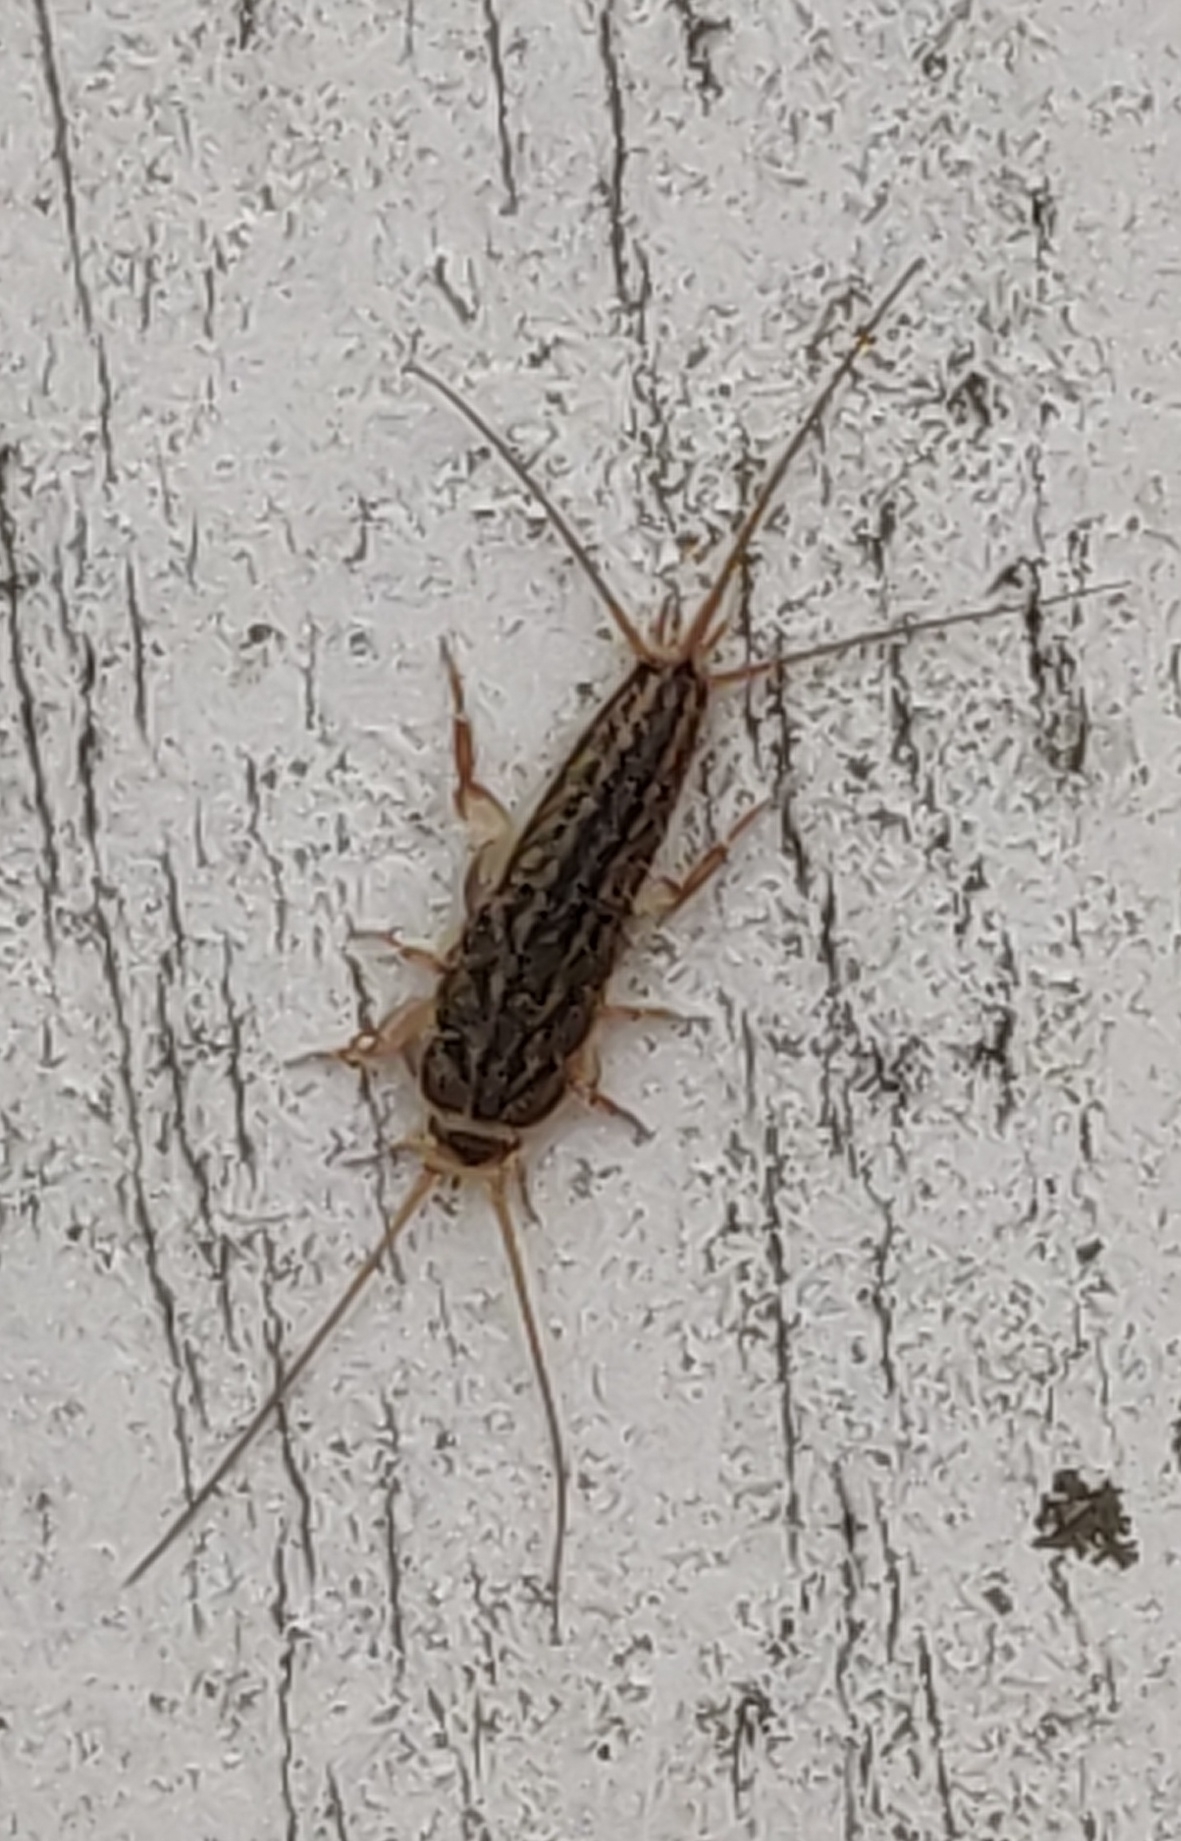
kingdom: Animalia
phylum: Arthropoda
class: Insecta
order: Zygentoma
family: Lepismatidae
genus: Ctenolepisma
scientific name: Ctenolepisma lineata
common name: Four-lined silverfish
